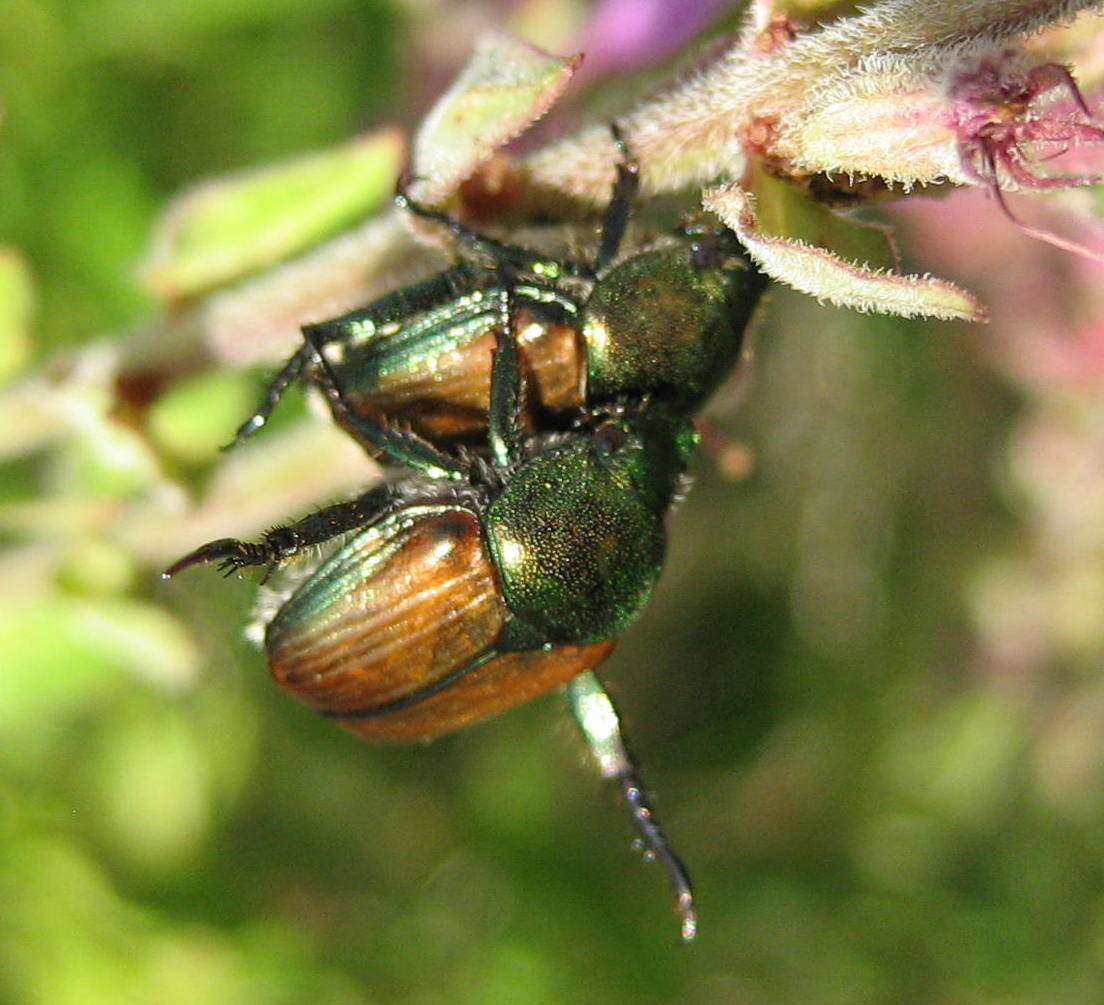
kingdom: Animalia
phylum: Arthropoda
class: Insecta
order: Coleoptera
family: Scarabaeidae
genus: Popillia
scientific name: Popillia japonica
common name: Japanese beetle
